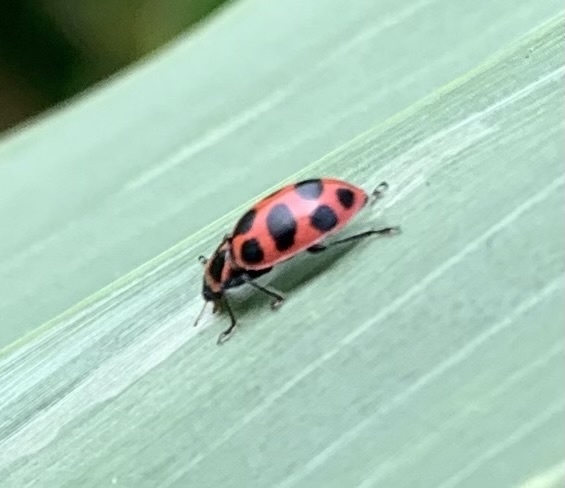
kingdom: Animalia
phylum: Arthropoda
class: Insecta
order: Coleoptera
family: Coccinellidae
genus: Coleomegilla
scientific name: Coleomegilla maculata
